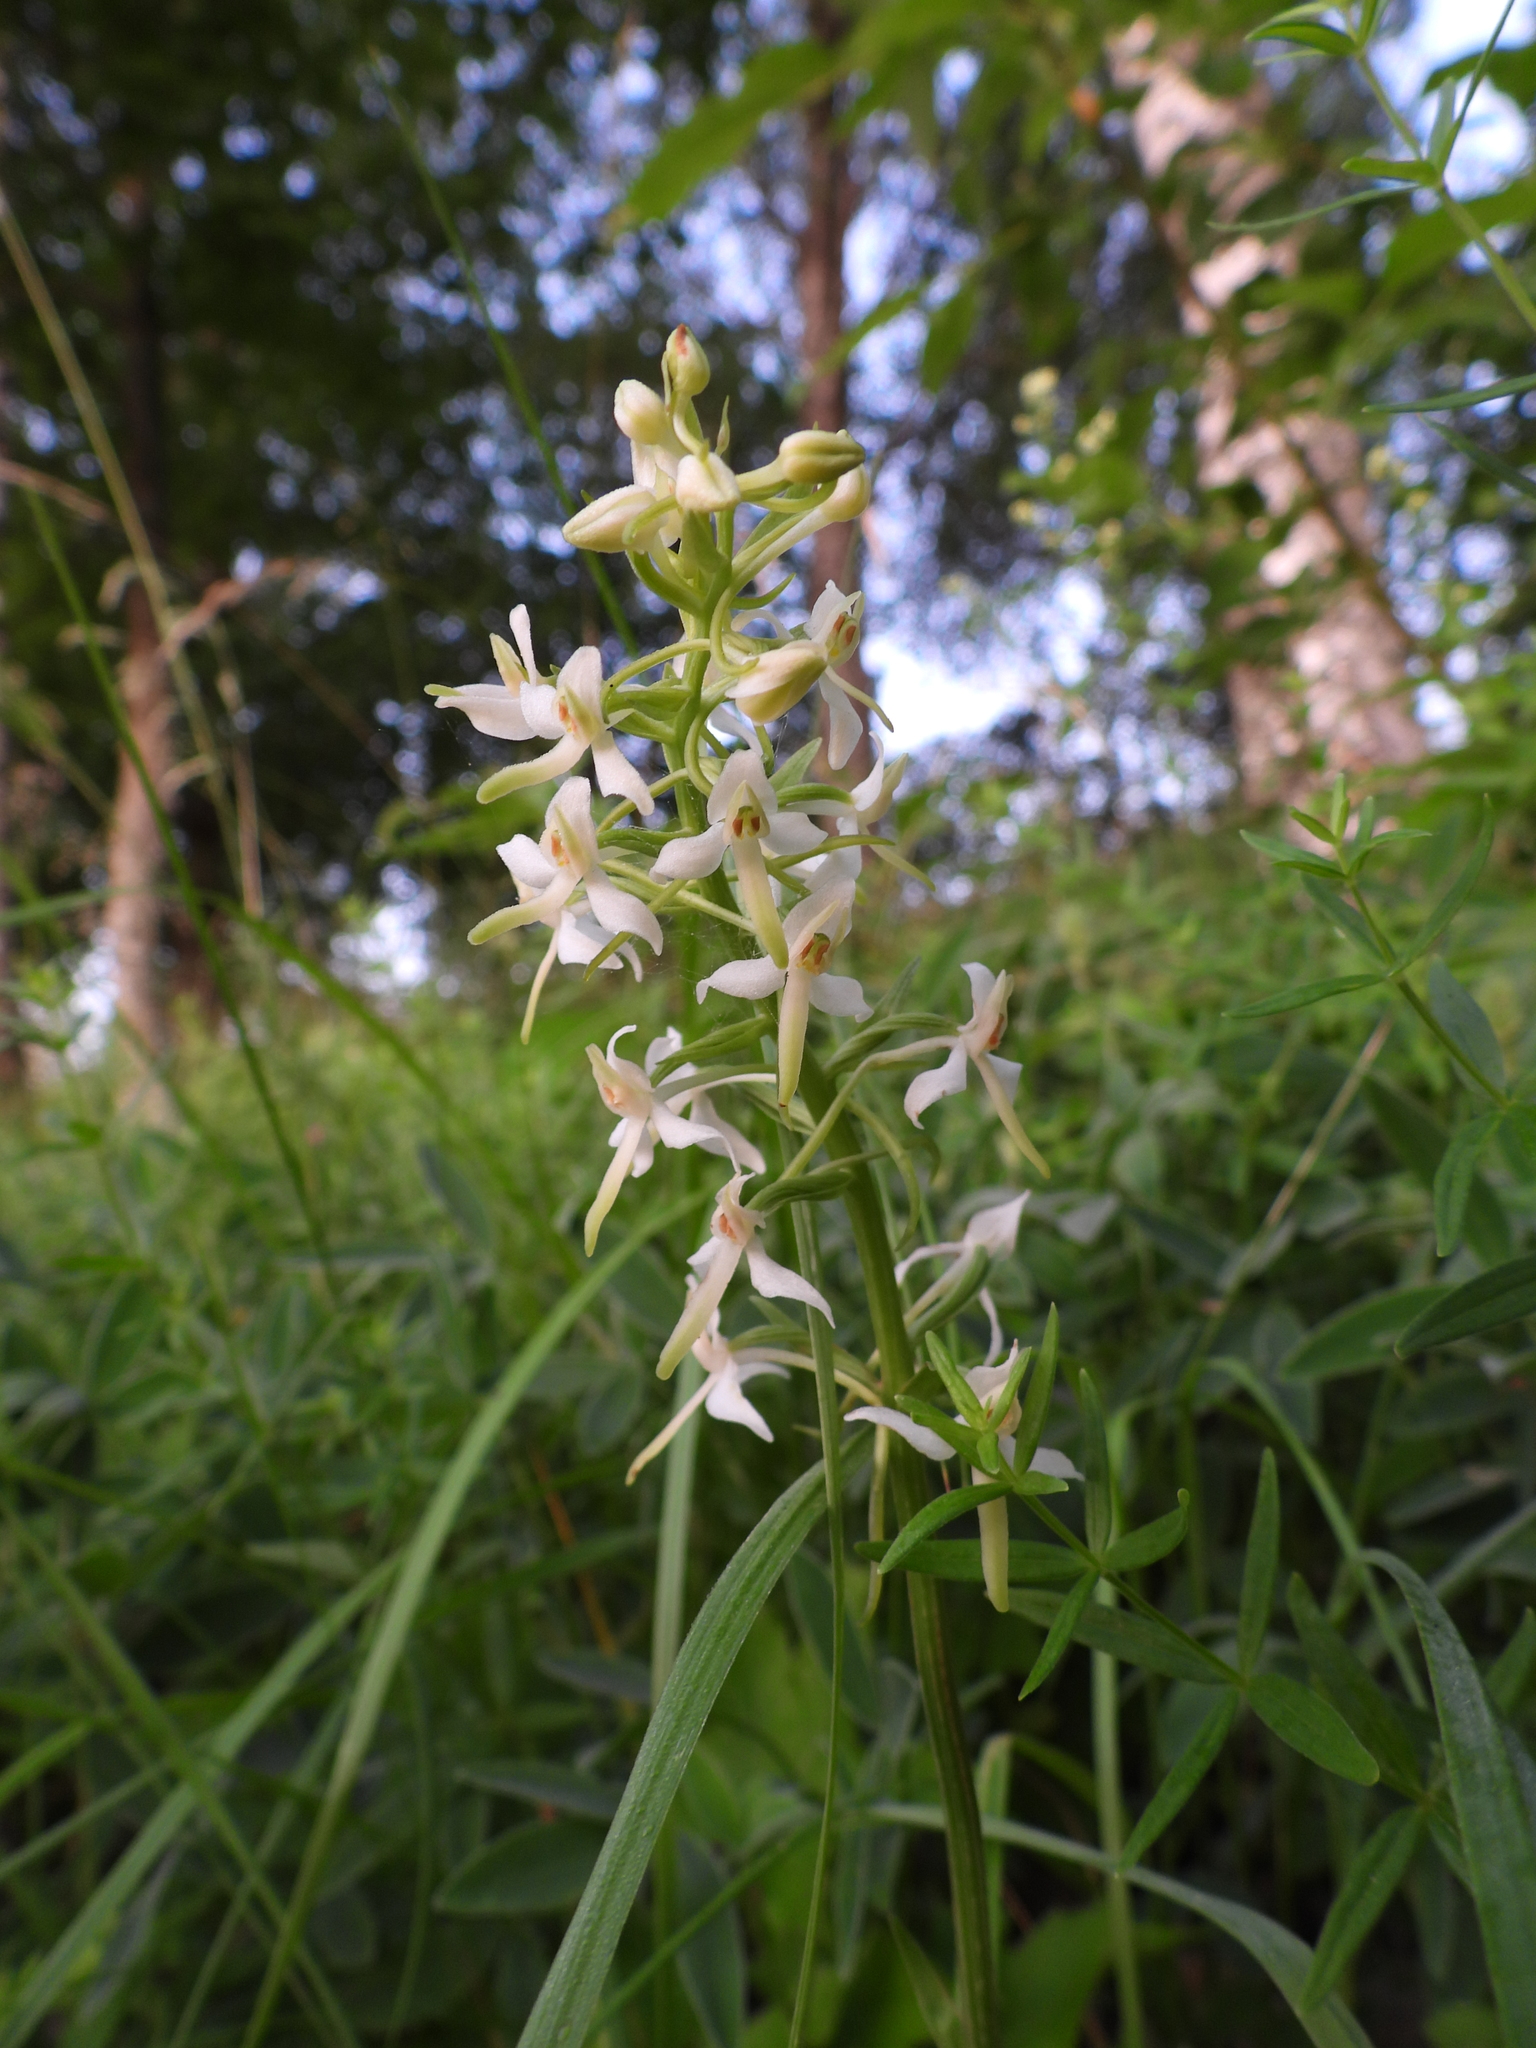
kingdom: Plantae
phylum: Tracheophyta
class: Liliopsida
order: Asparagales
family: Orchidaceae
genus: Platanthera
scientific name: Platanthera bifolia
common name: Lesser butterfly-orchid
